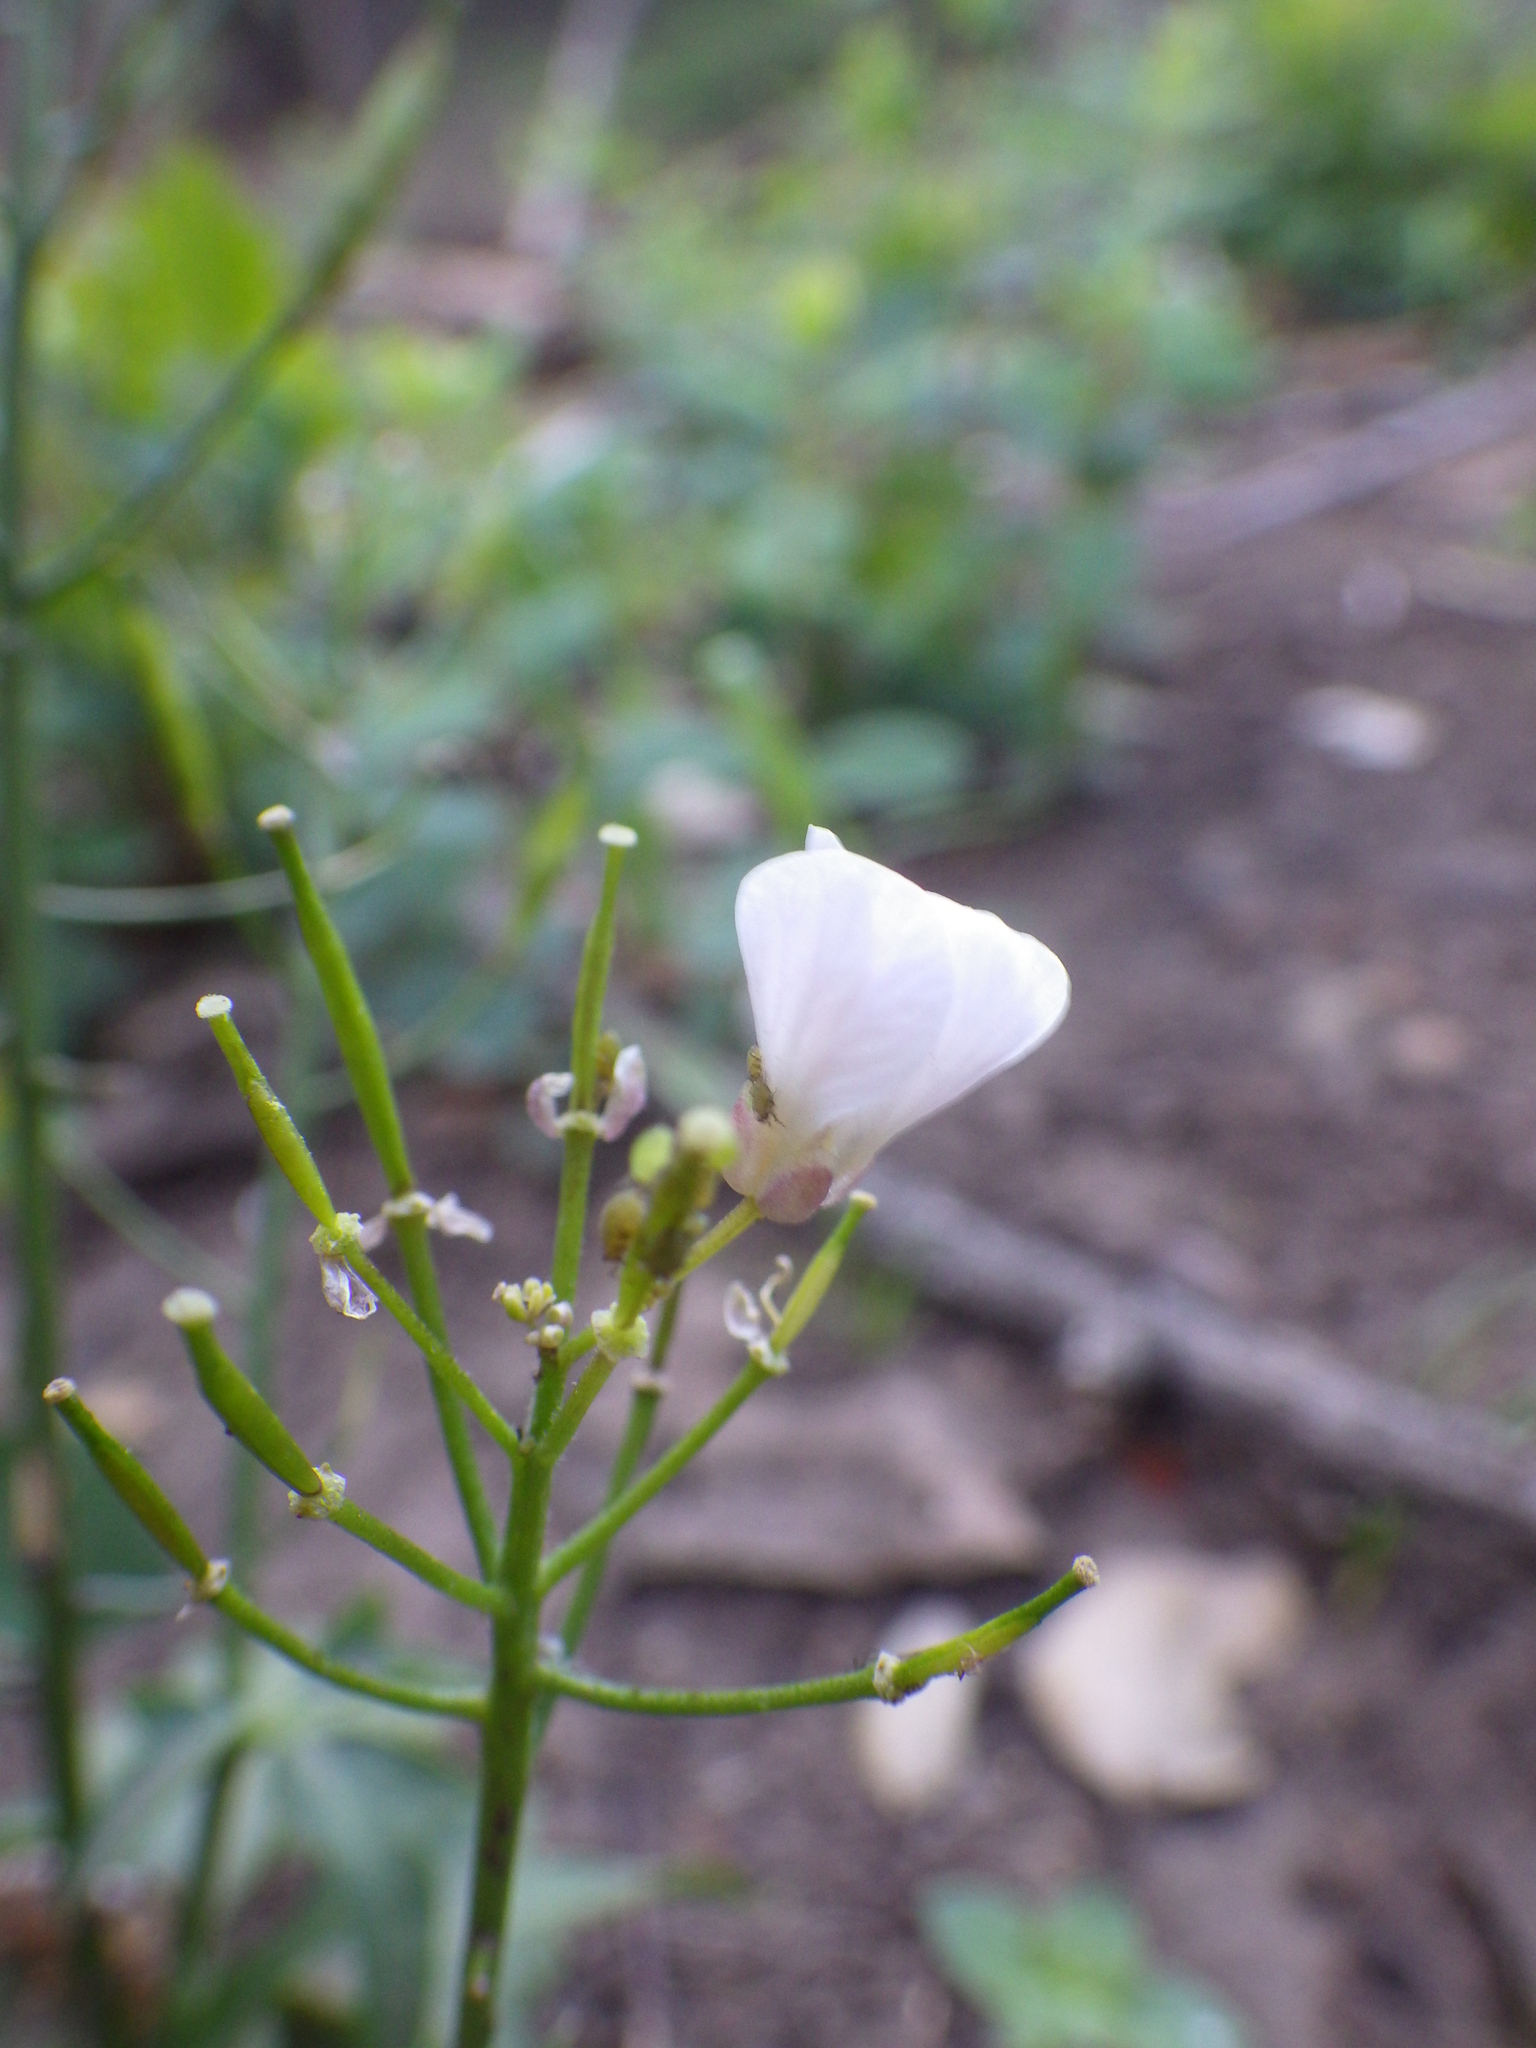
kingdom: Plantae
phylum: Tracheophyta
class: Magnoliopsida
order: Brassicales
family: Brassicaceae
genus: Cardamine
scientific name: Cardamine californica
